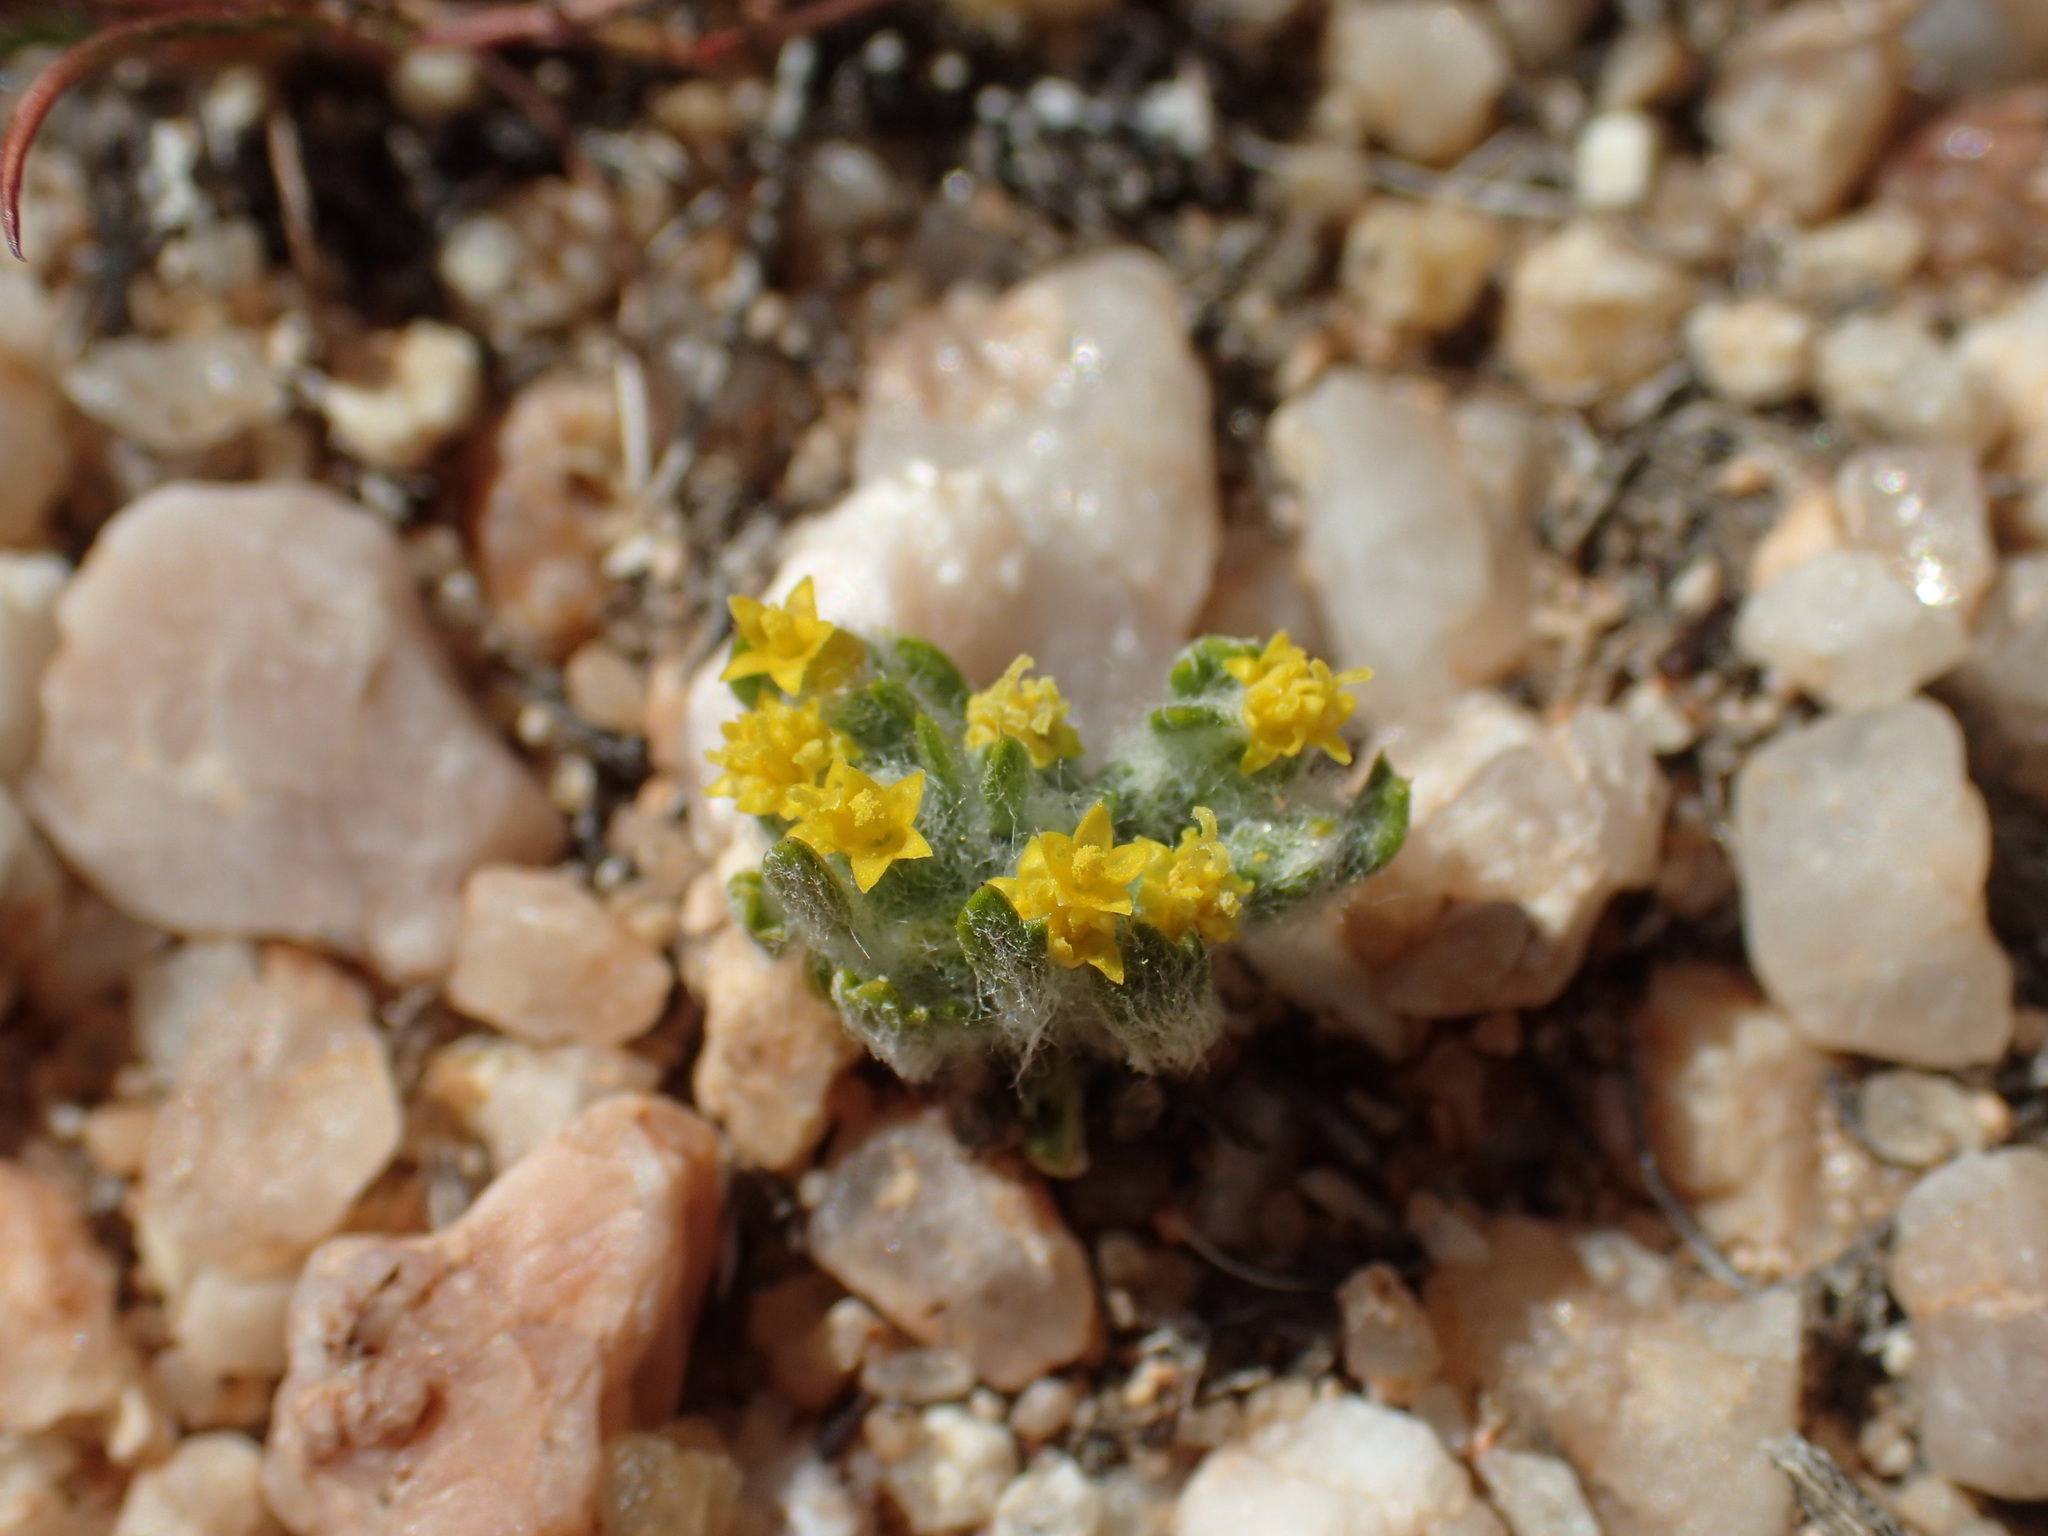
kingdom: Plantae
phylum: Tracheophyta
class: Magnoliopsida
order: Asterales
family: Asteraceae
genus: Eriophyllum
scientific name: Eriophyllum mohavense
